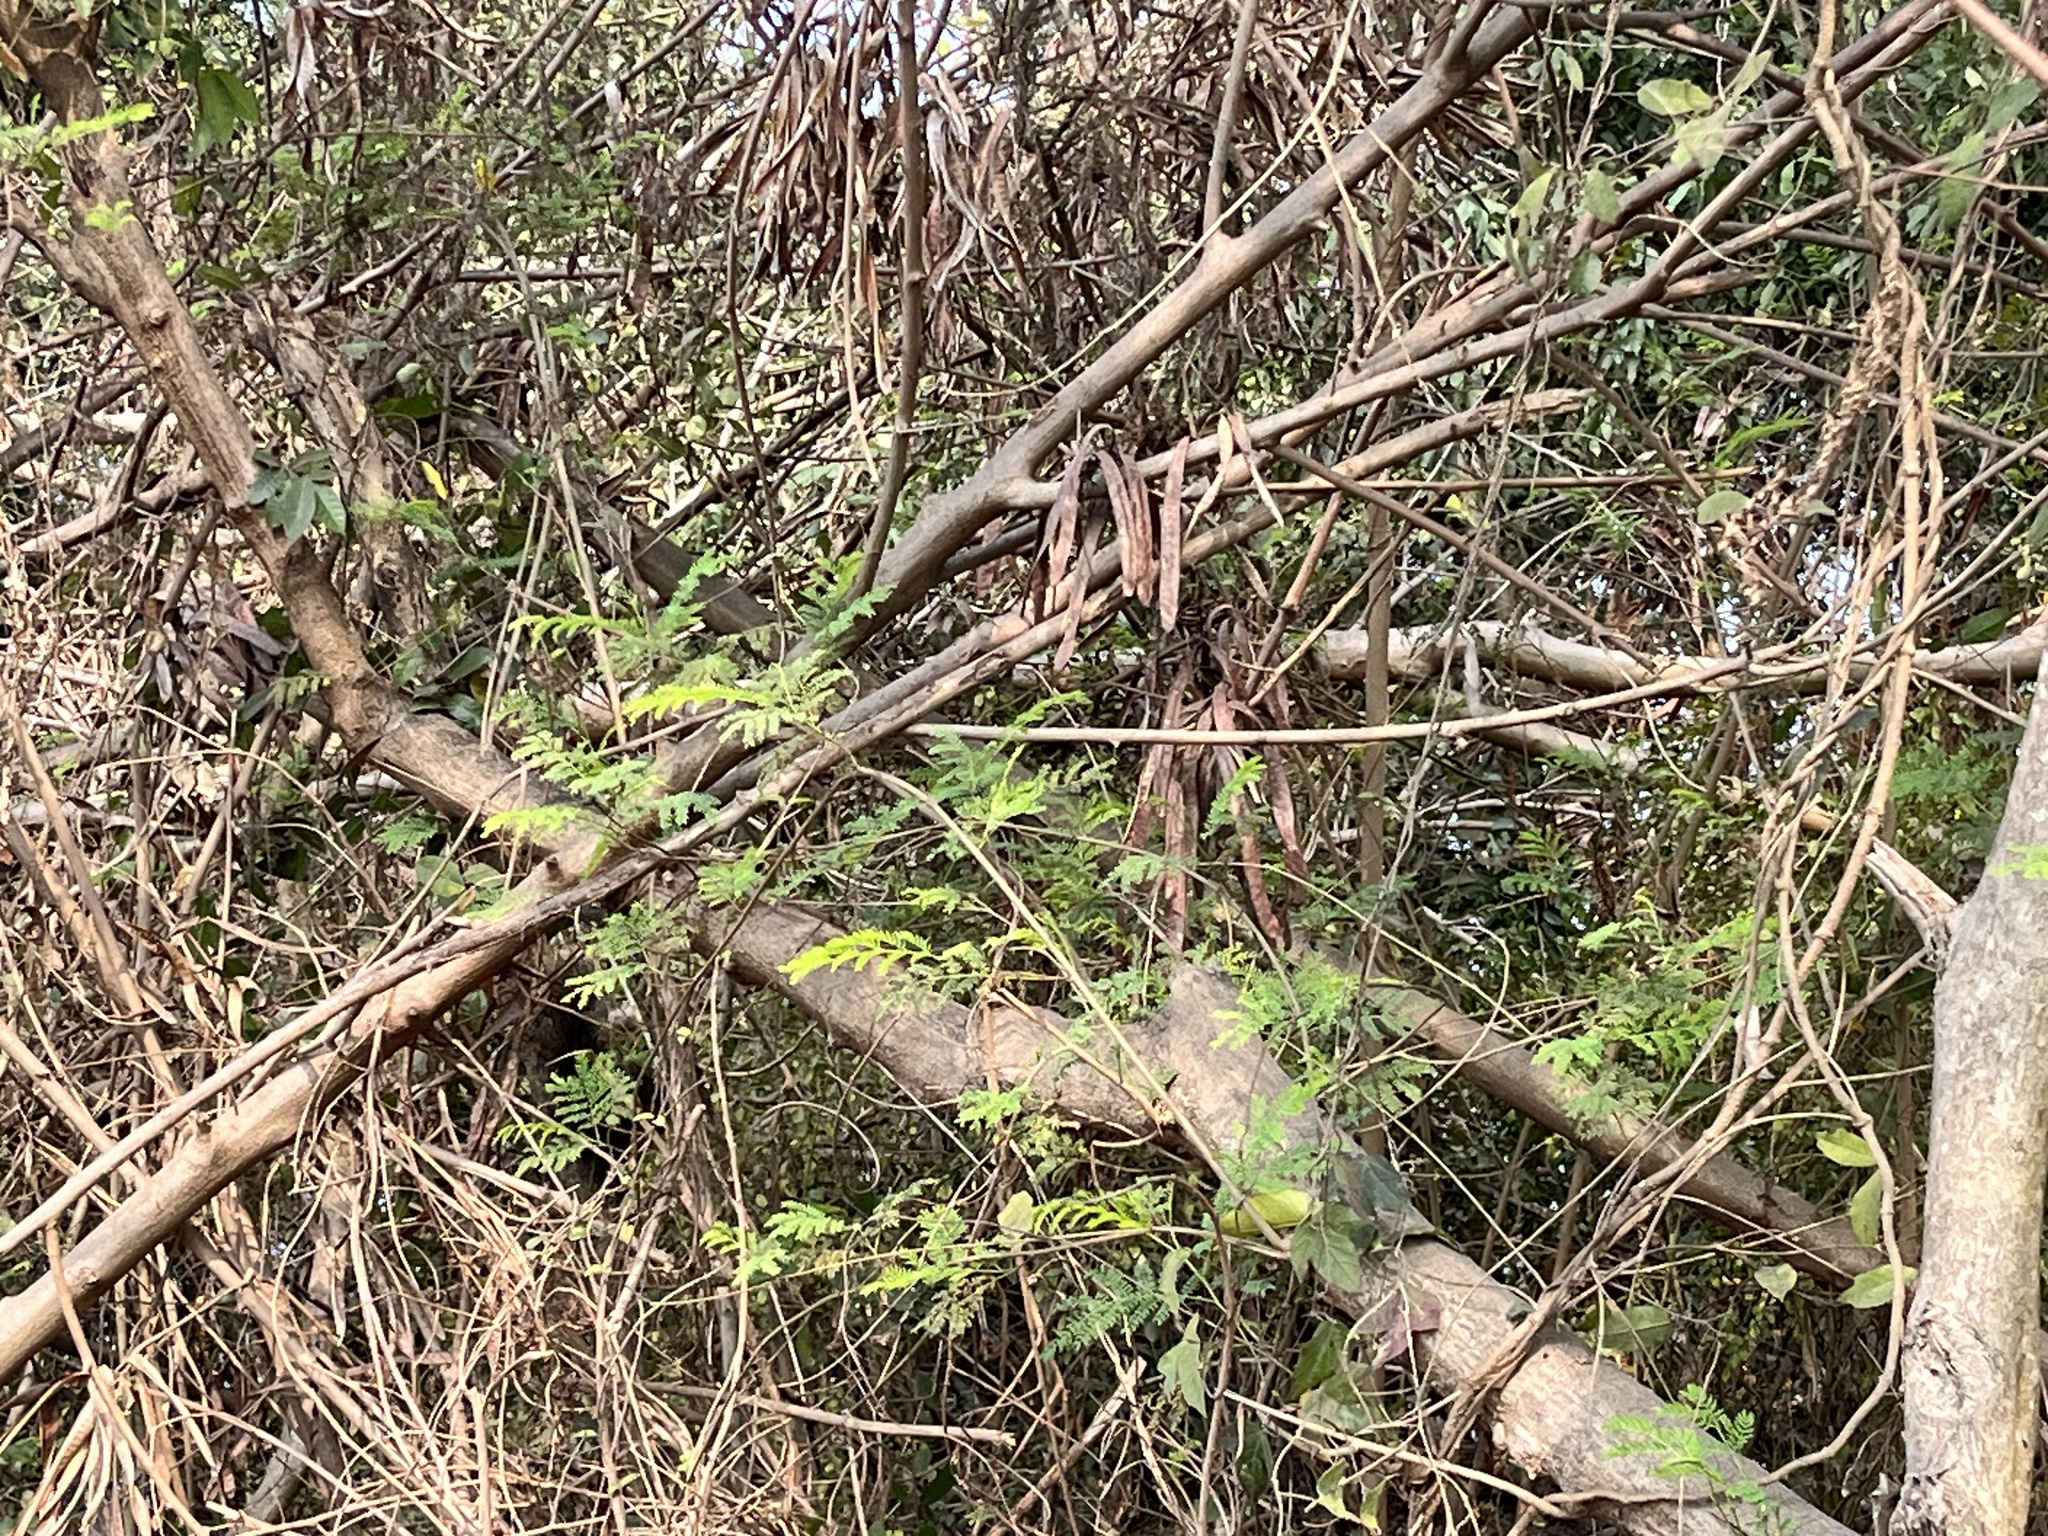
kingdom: Plantae
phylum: Tracheophyta
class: Magnoliopsida
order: Fabales
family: Fabaceae
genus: Leucaena
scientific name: Leucaena leucocephala
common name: White leadtree
